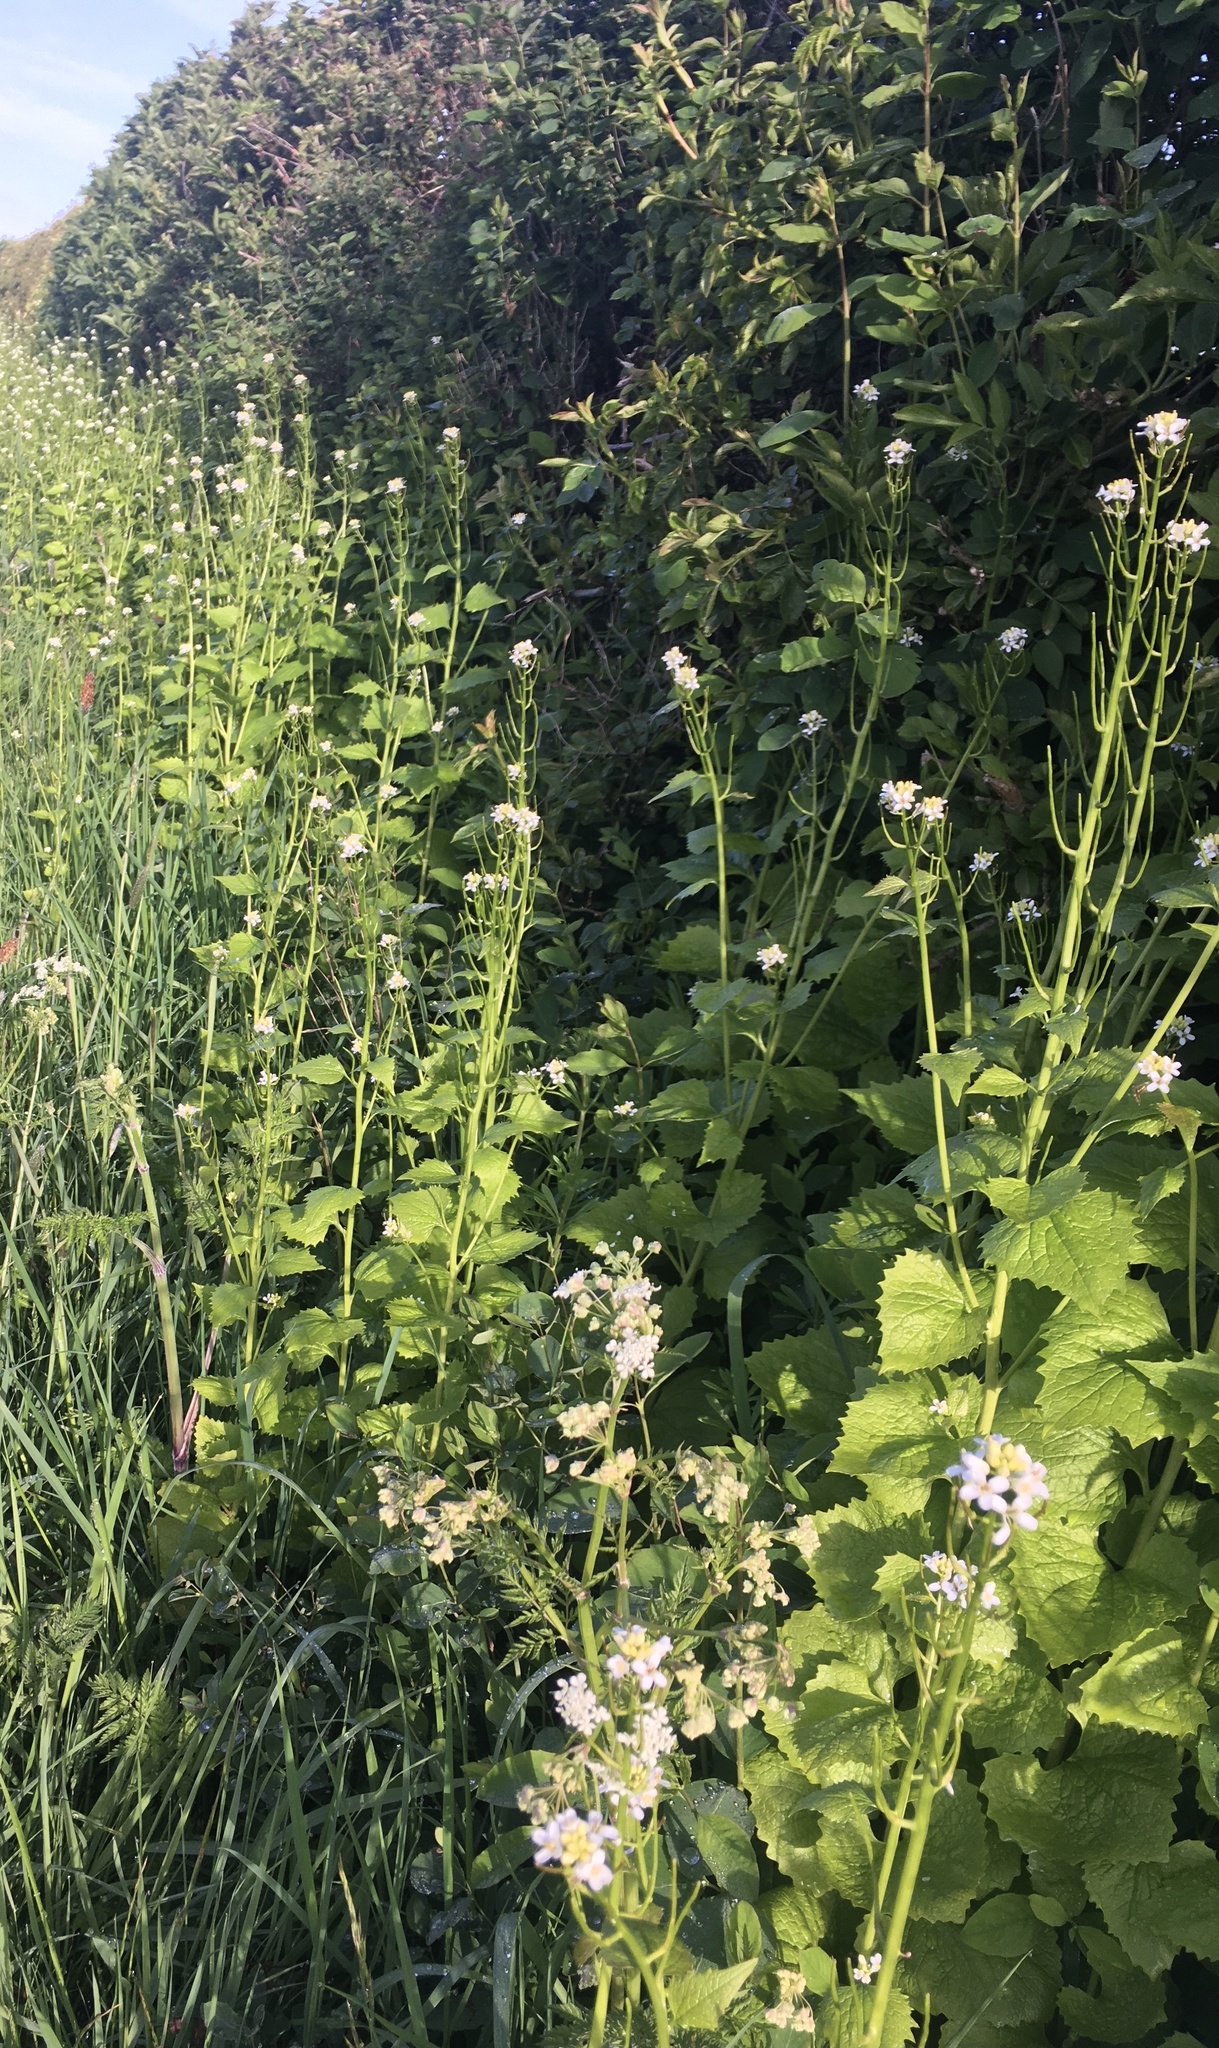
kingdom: Plantae
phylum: Tracheophyta
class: Magnoliopsida
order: Brassicales
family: Brassicaceae
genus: Alliaria
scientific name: Alliaria petiolata
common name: Garlic mustard
